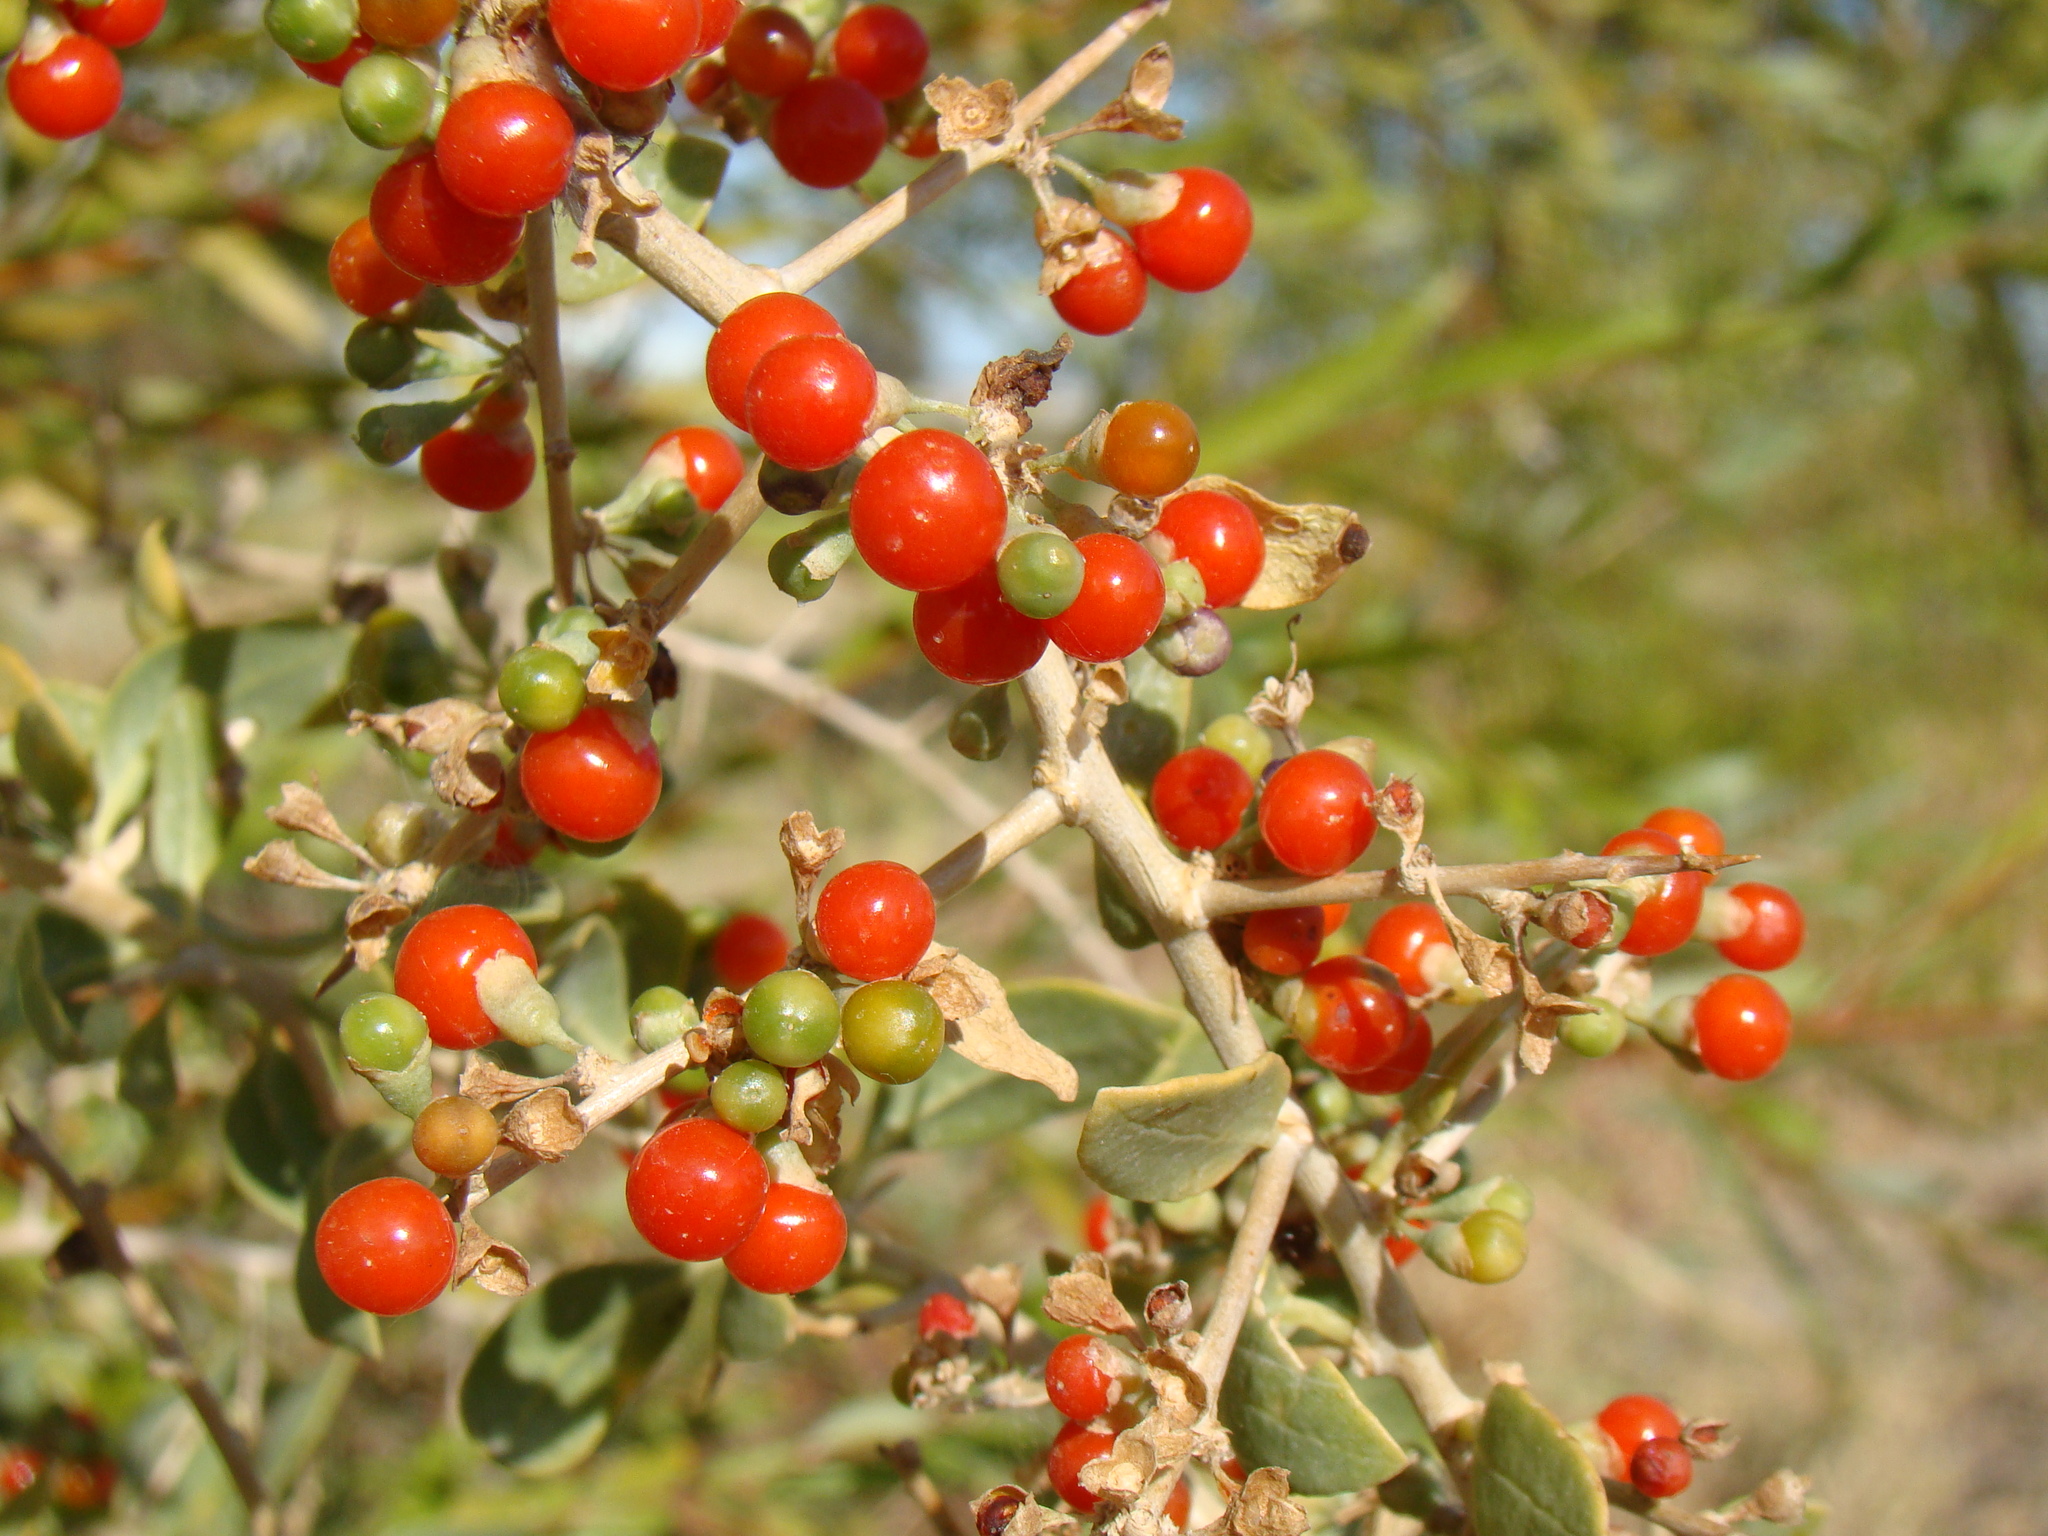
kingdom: Plantae
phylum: Tracheophyta
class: Magnoliopsida
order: Solanales
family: Solanaceae
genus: Lycium
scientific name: Lycium dasystemum
